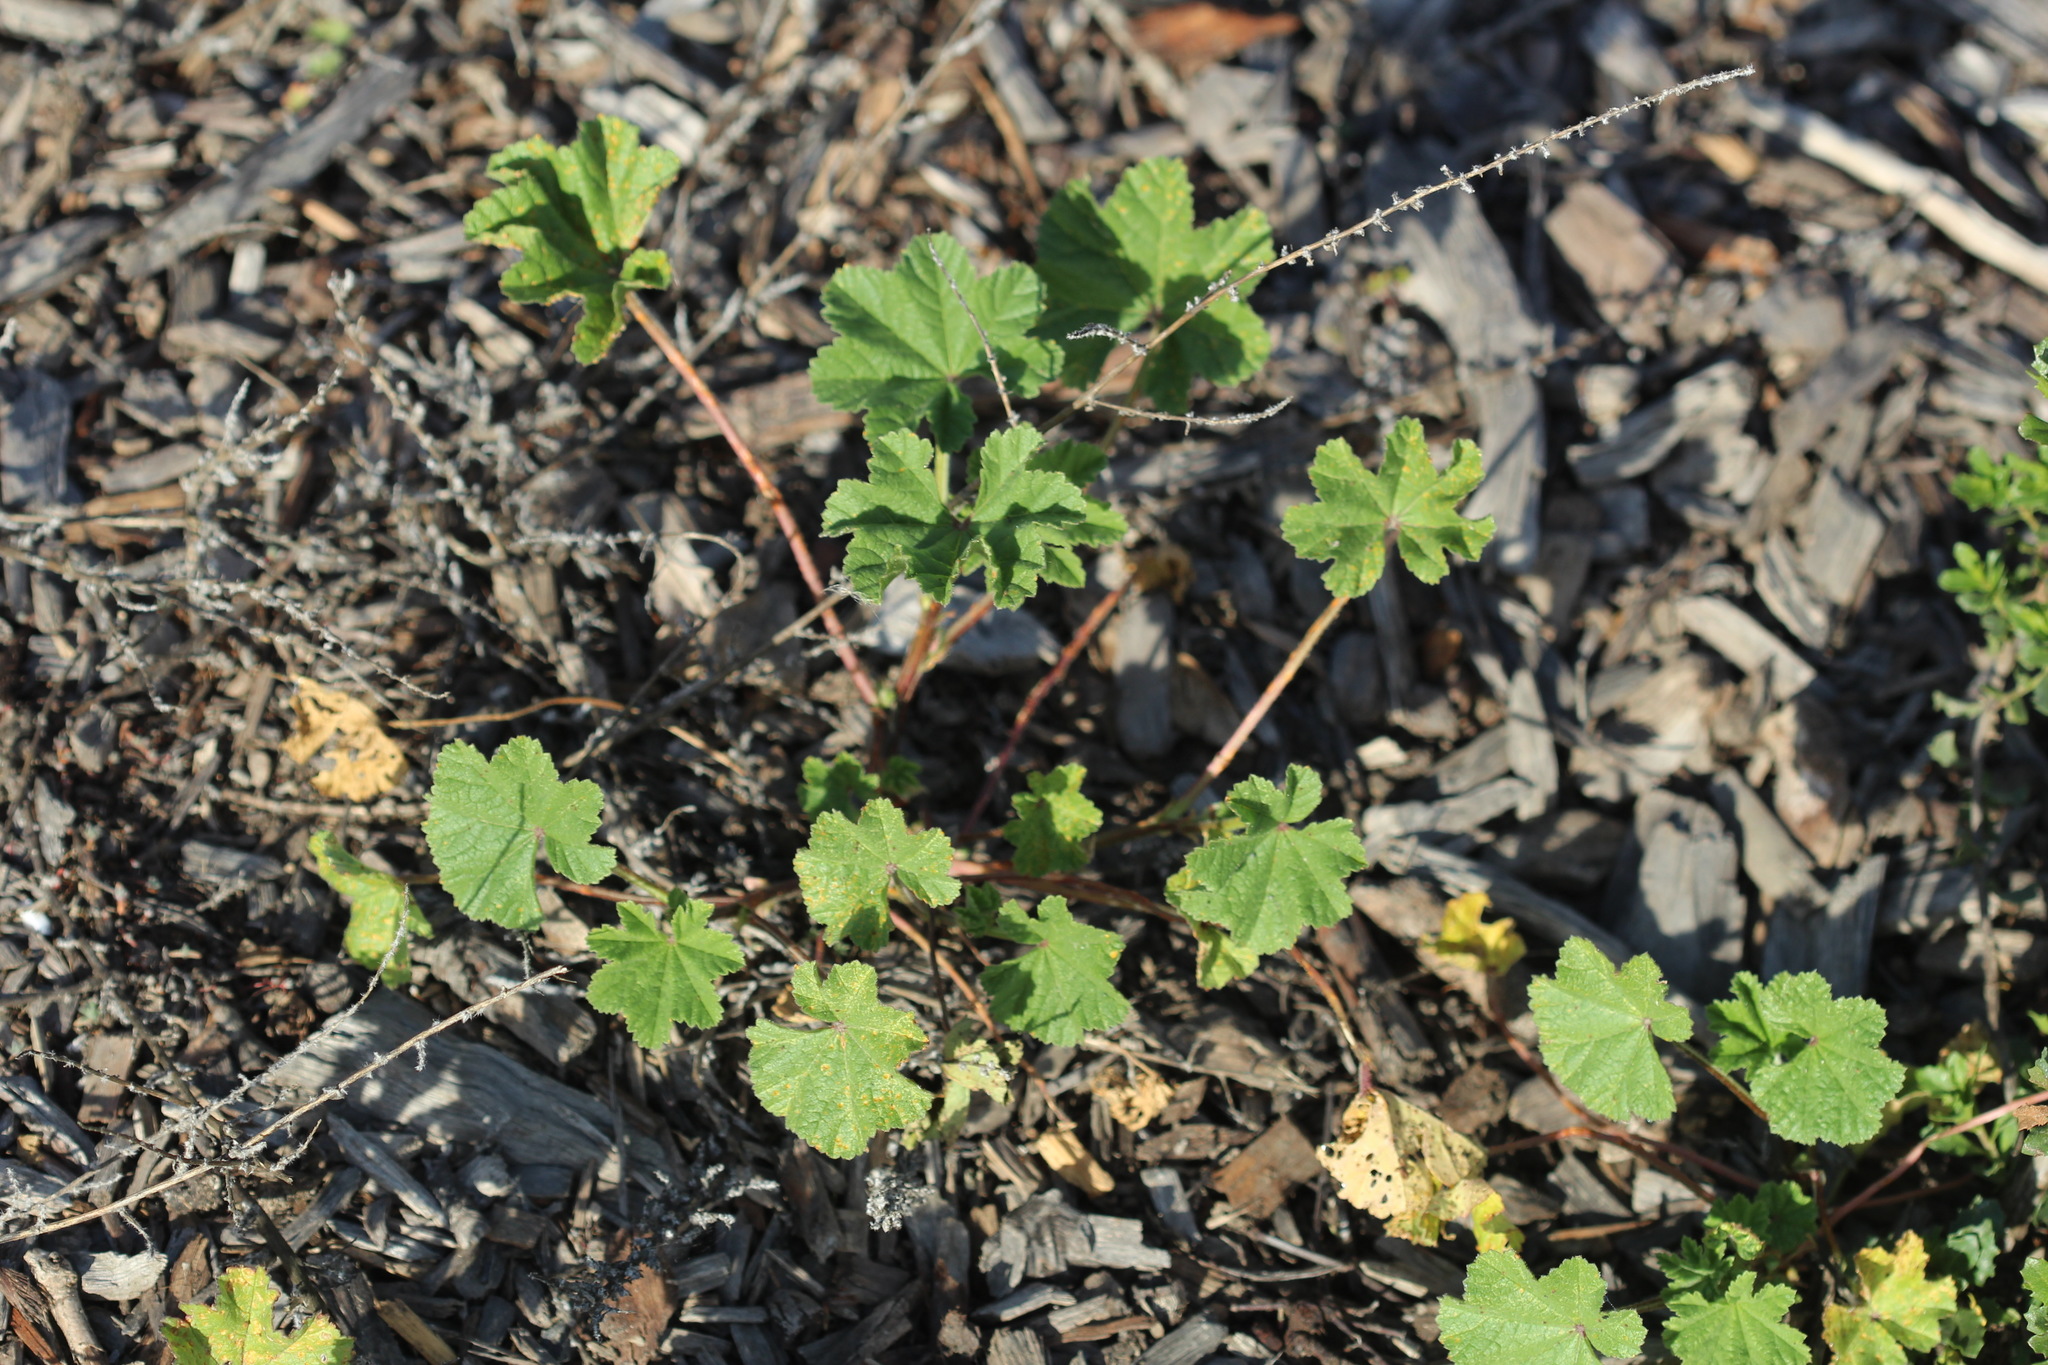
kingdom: Plantae
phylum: Tracheophyta
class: Magnoliopsida
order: Malvales
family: Malvaceae
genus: Malva
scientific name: Malva
